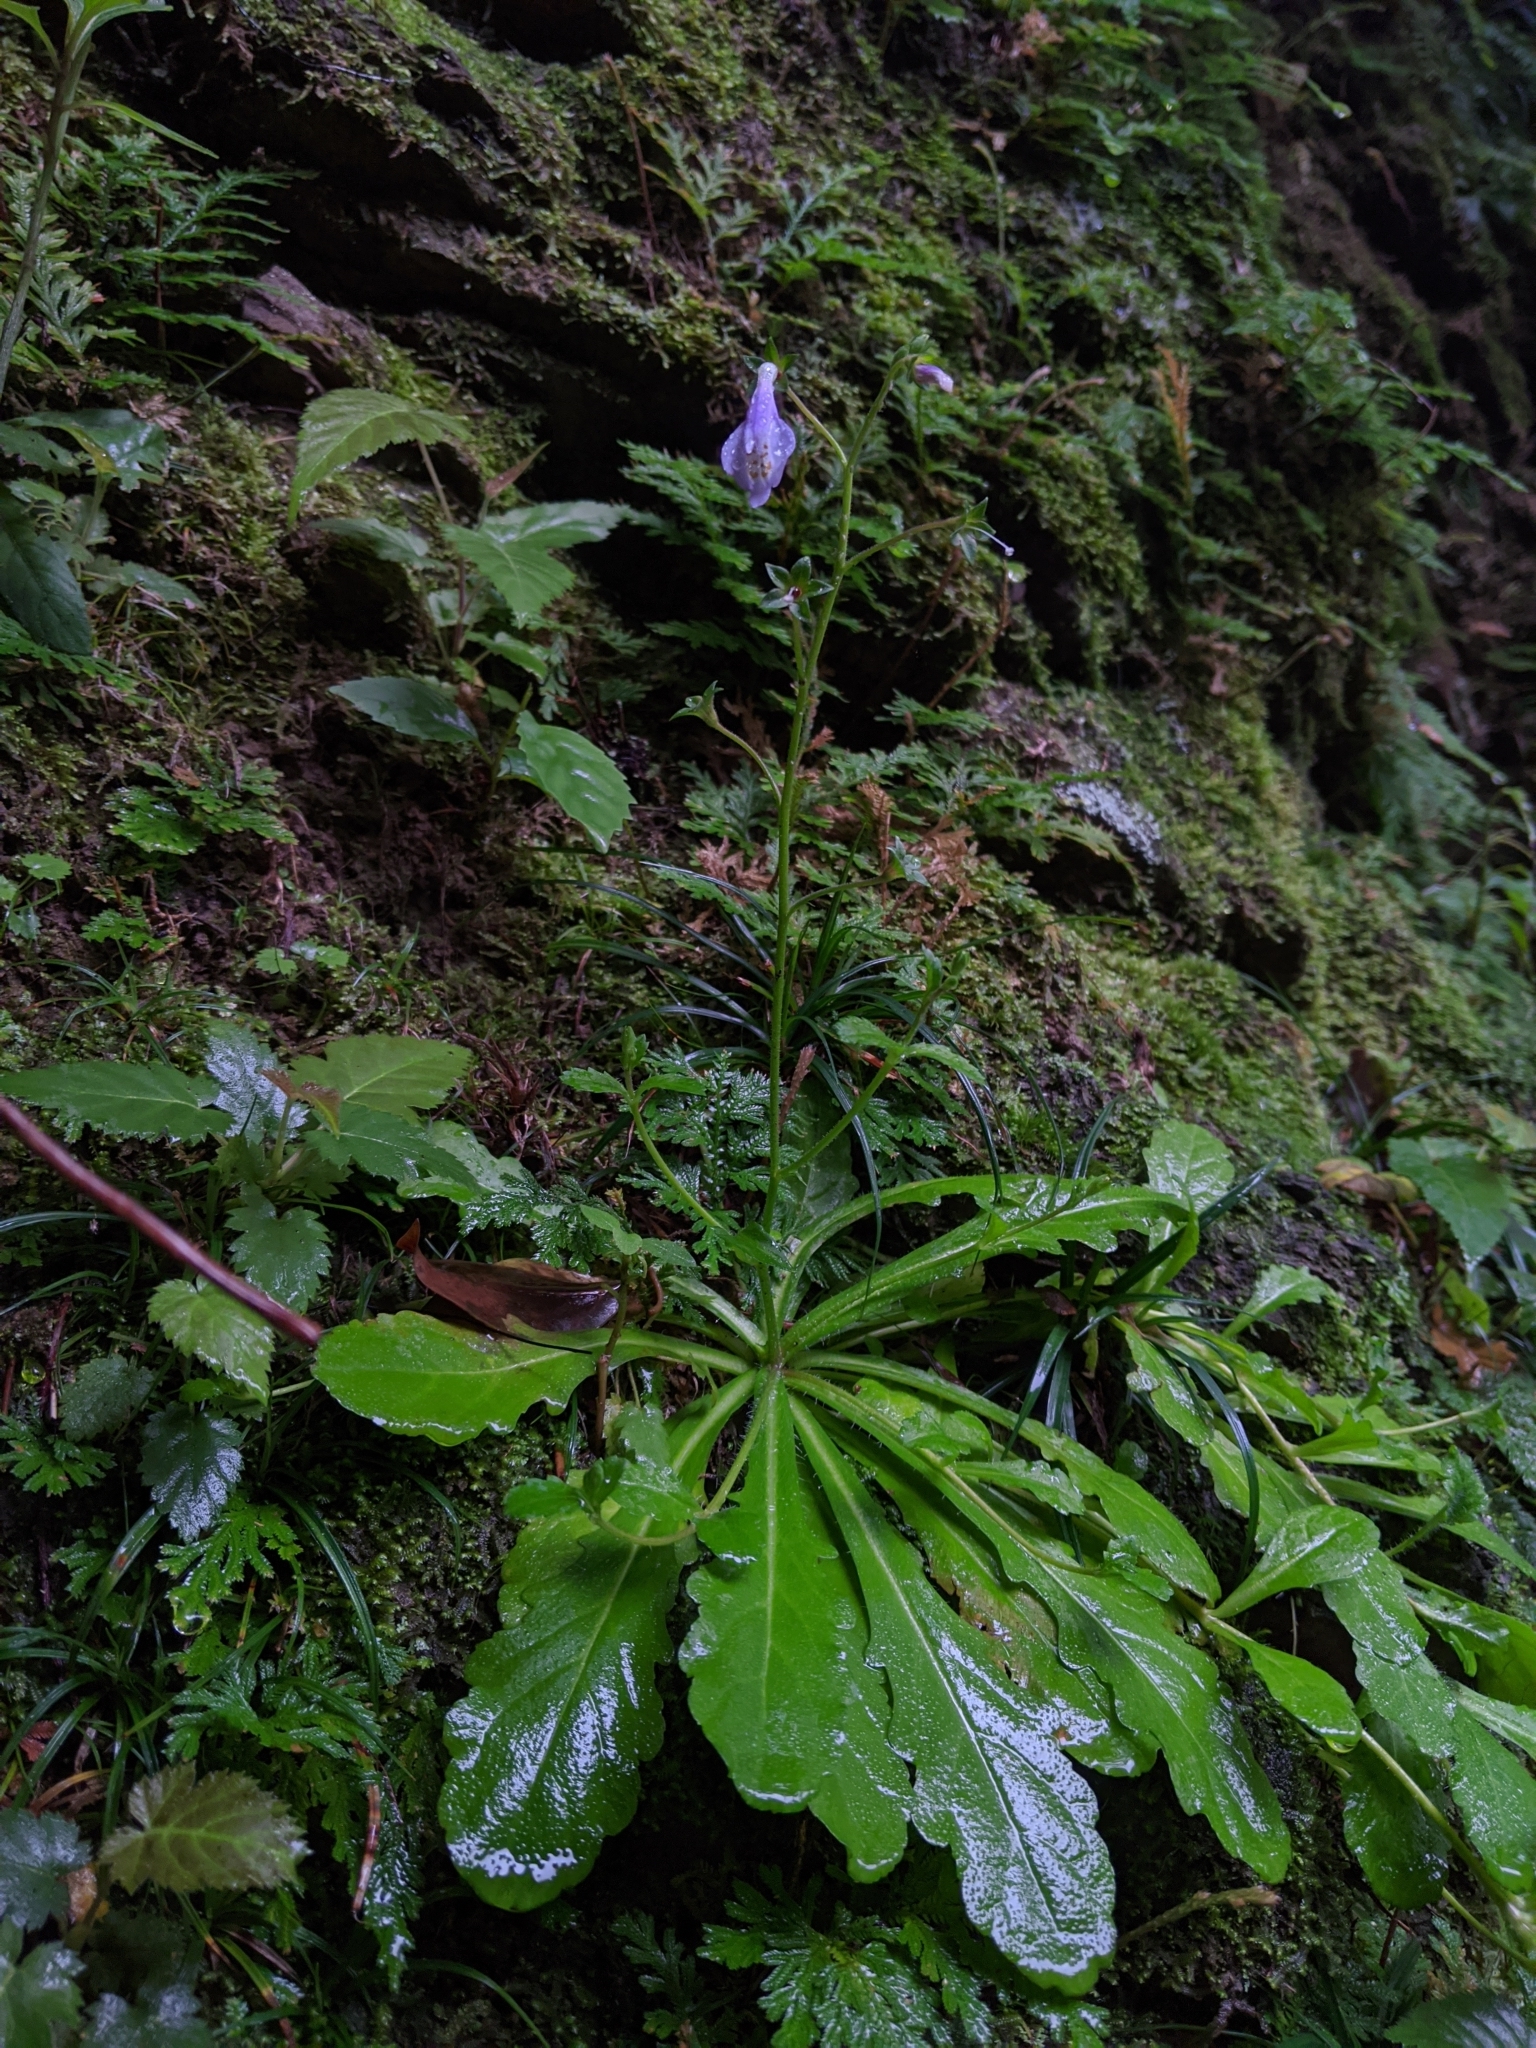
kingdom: Plantae
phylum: Tracheophyta
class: Magnoliopsida
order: Lamiales
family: Mazaceae
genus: Mazus
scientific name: Mazus fauriei
